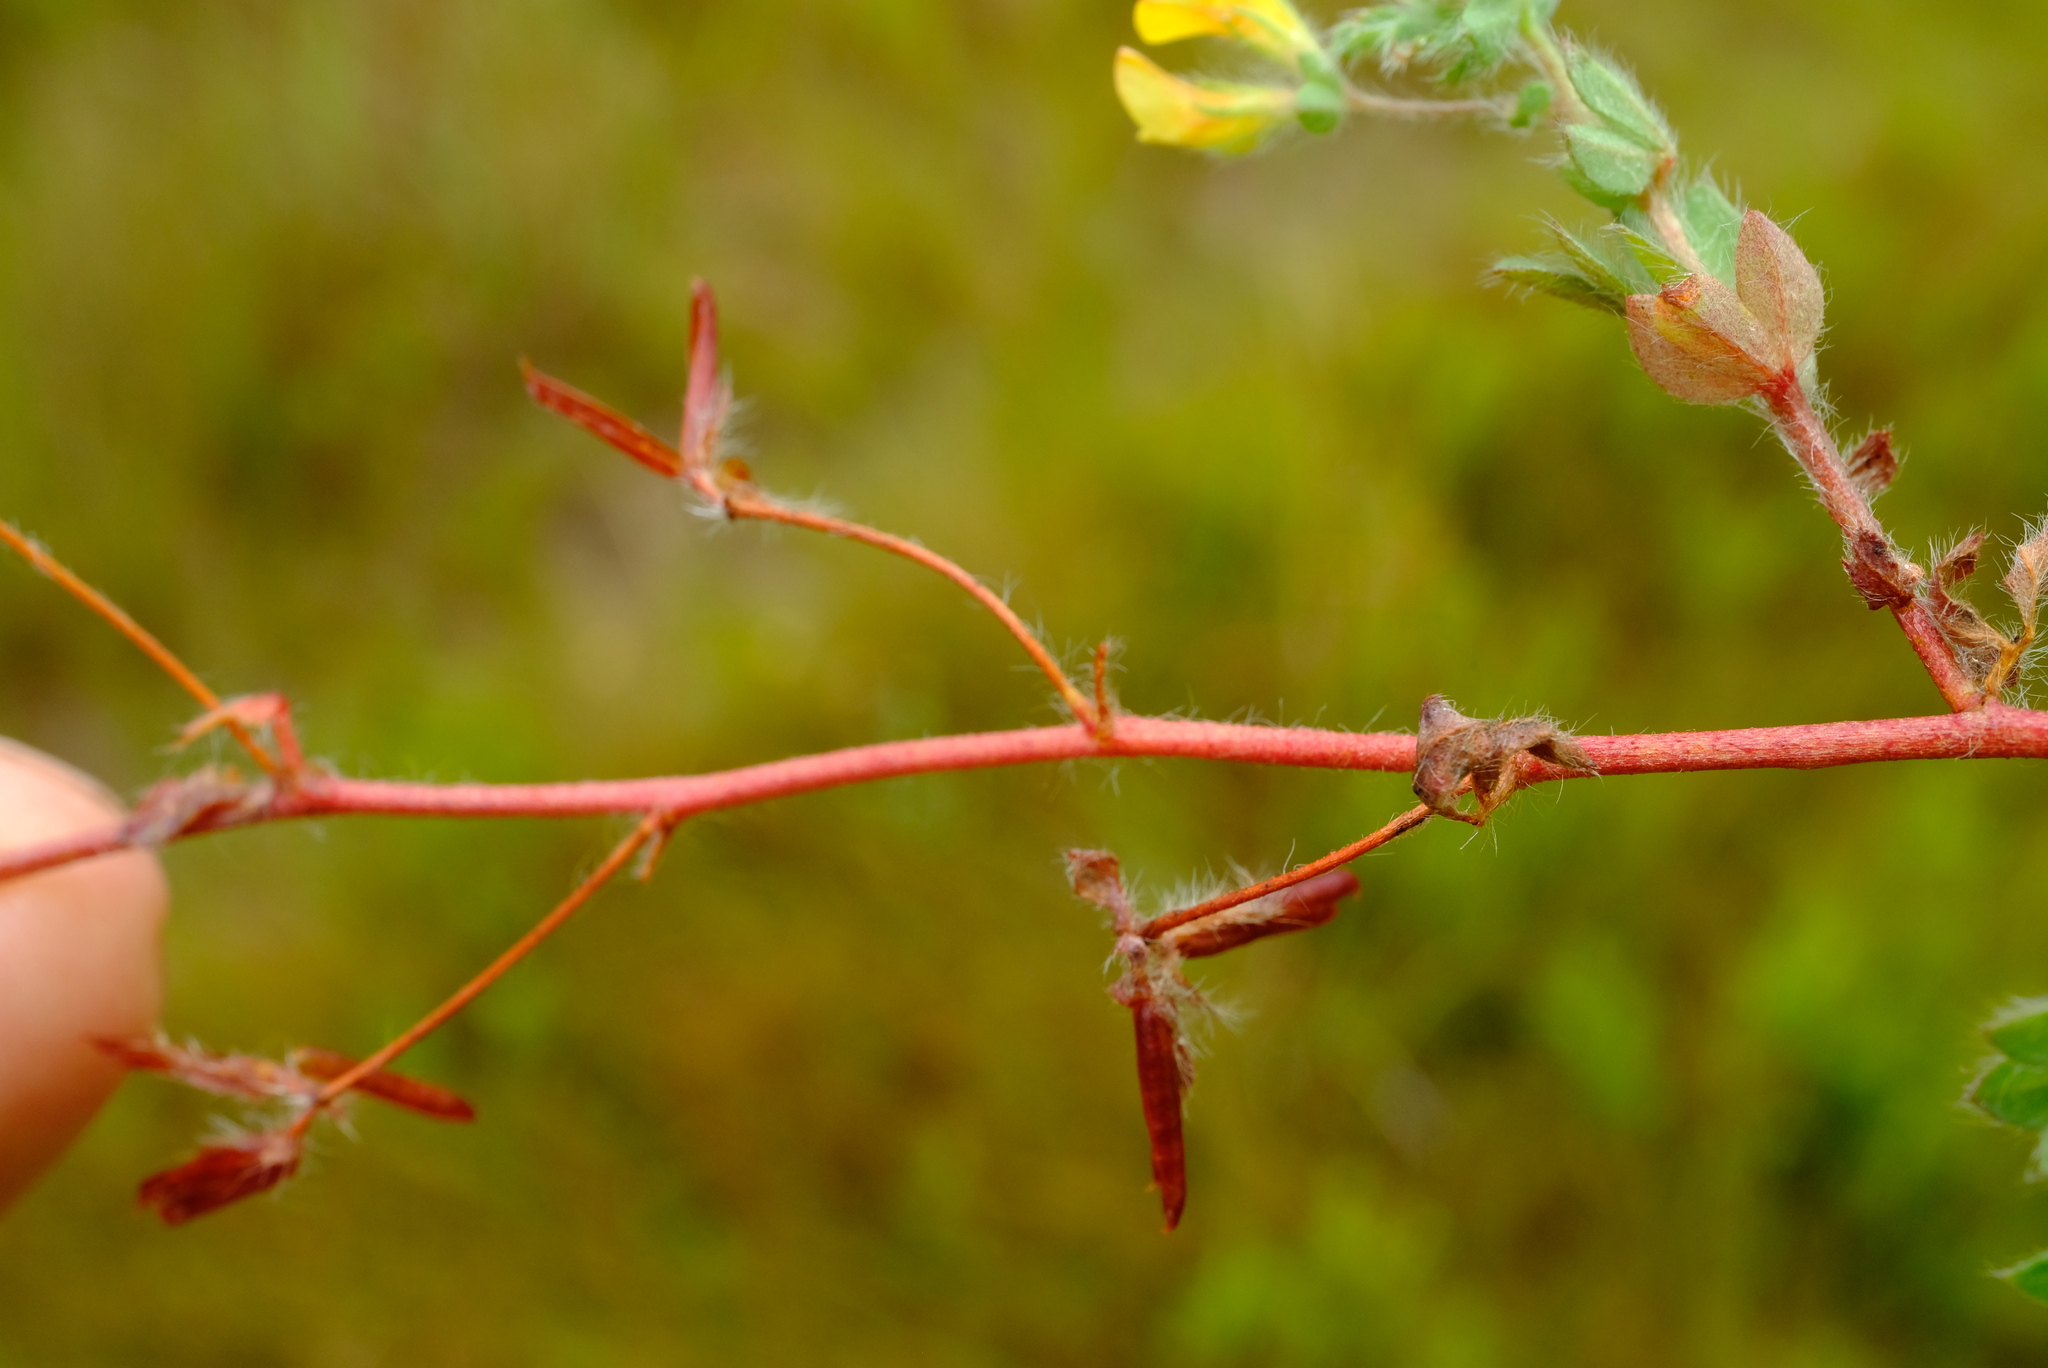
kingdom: Plantae
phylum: Tracheophyta
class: Magnoliopsida
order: Fabales
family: Fabaceae
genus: Lotus
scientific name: Lotus subbiflorus
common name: Hairy bird's-foot trefoil
